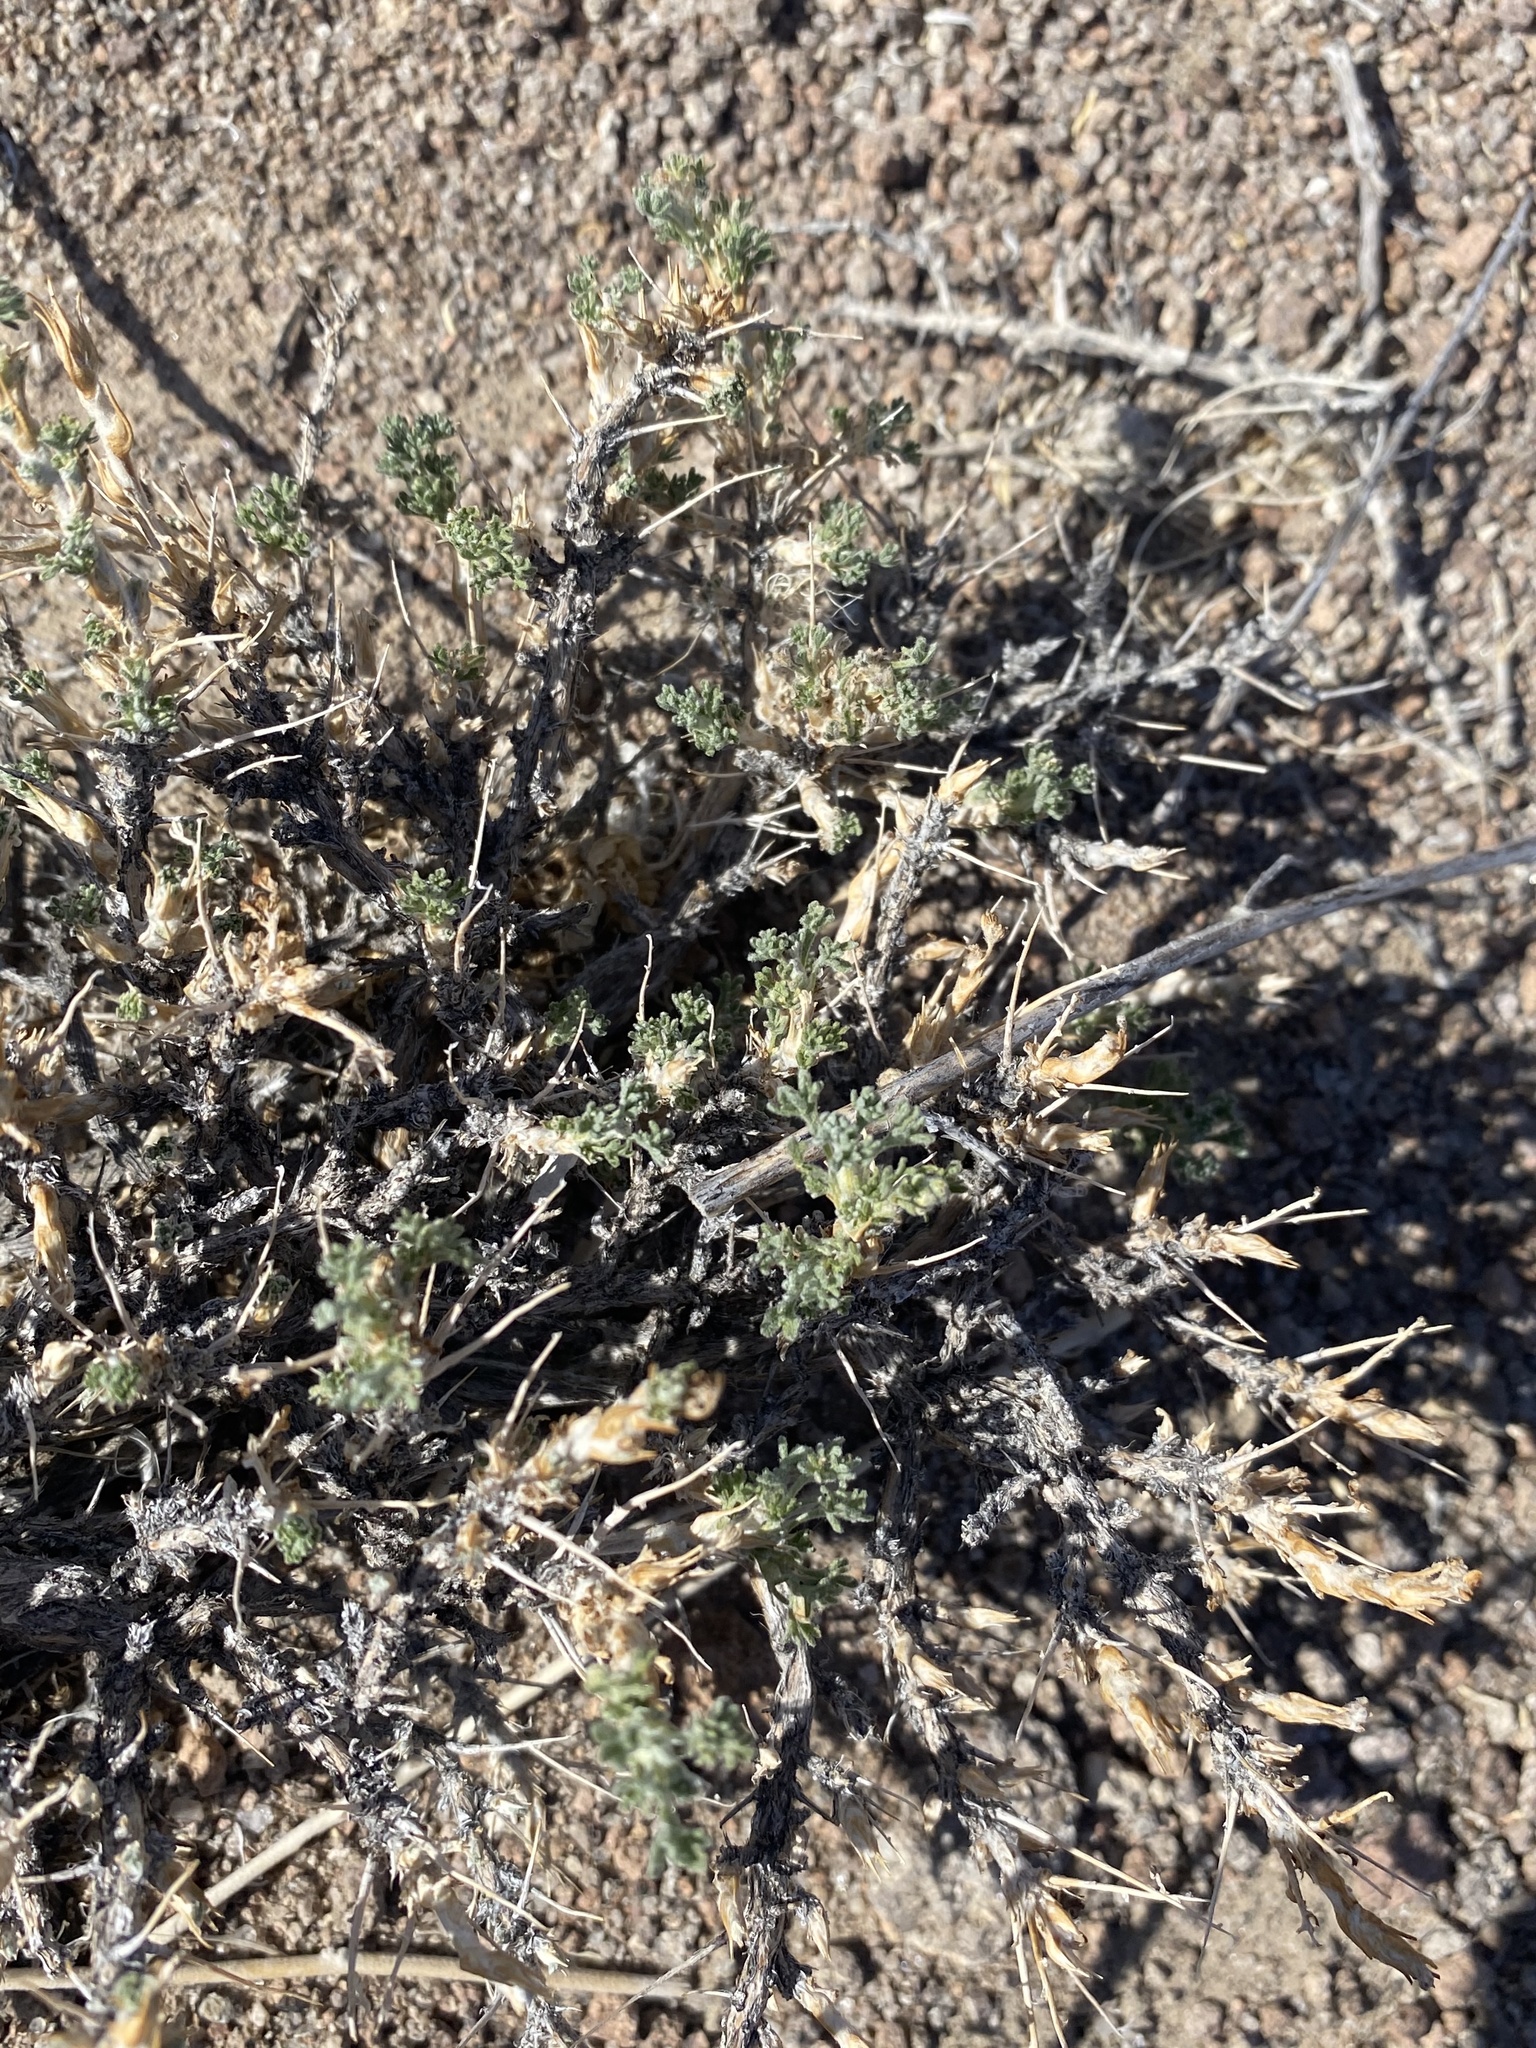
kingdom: Plantae
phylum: Tracheophyta
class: Magnoliopsida
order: Asterales
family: Asteraceae
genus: Artemisia
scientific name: Artemisia spinescens
